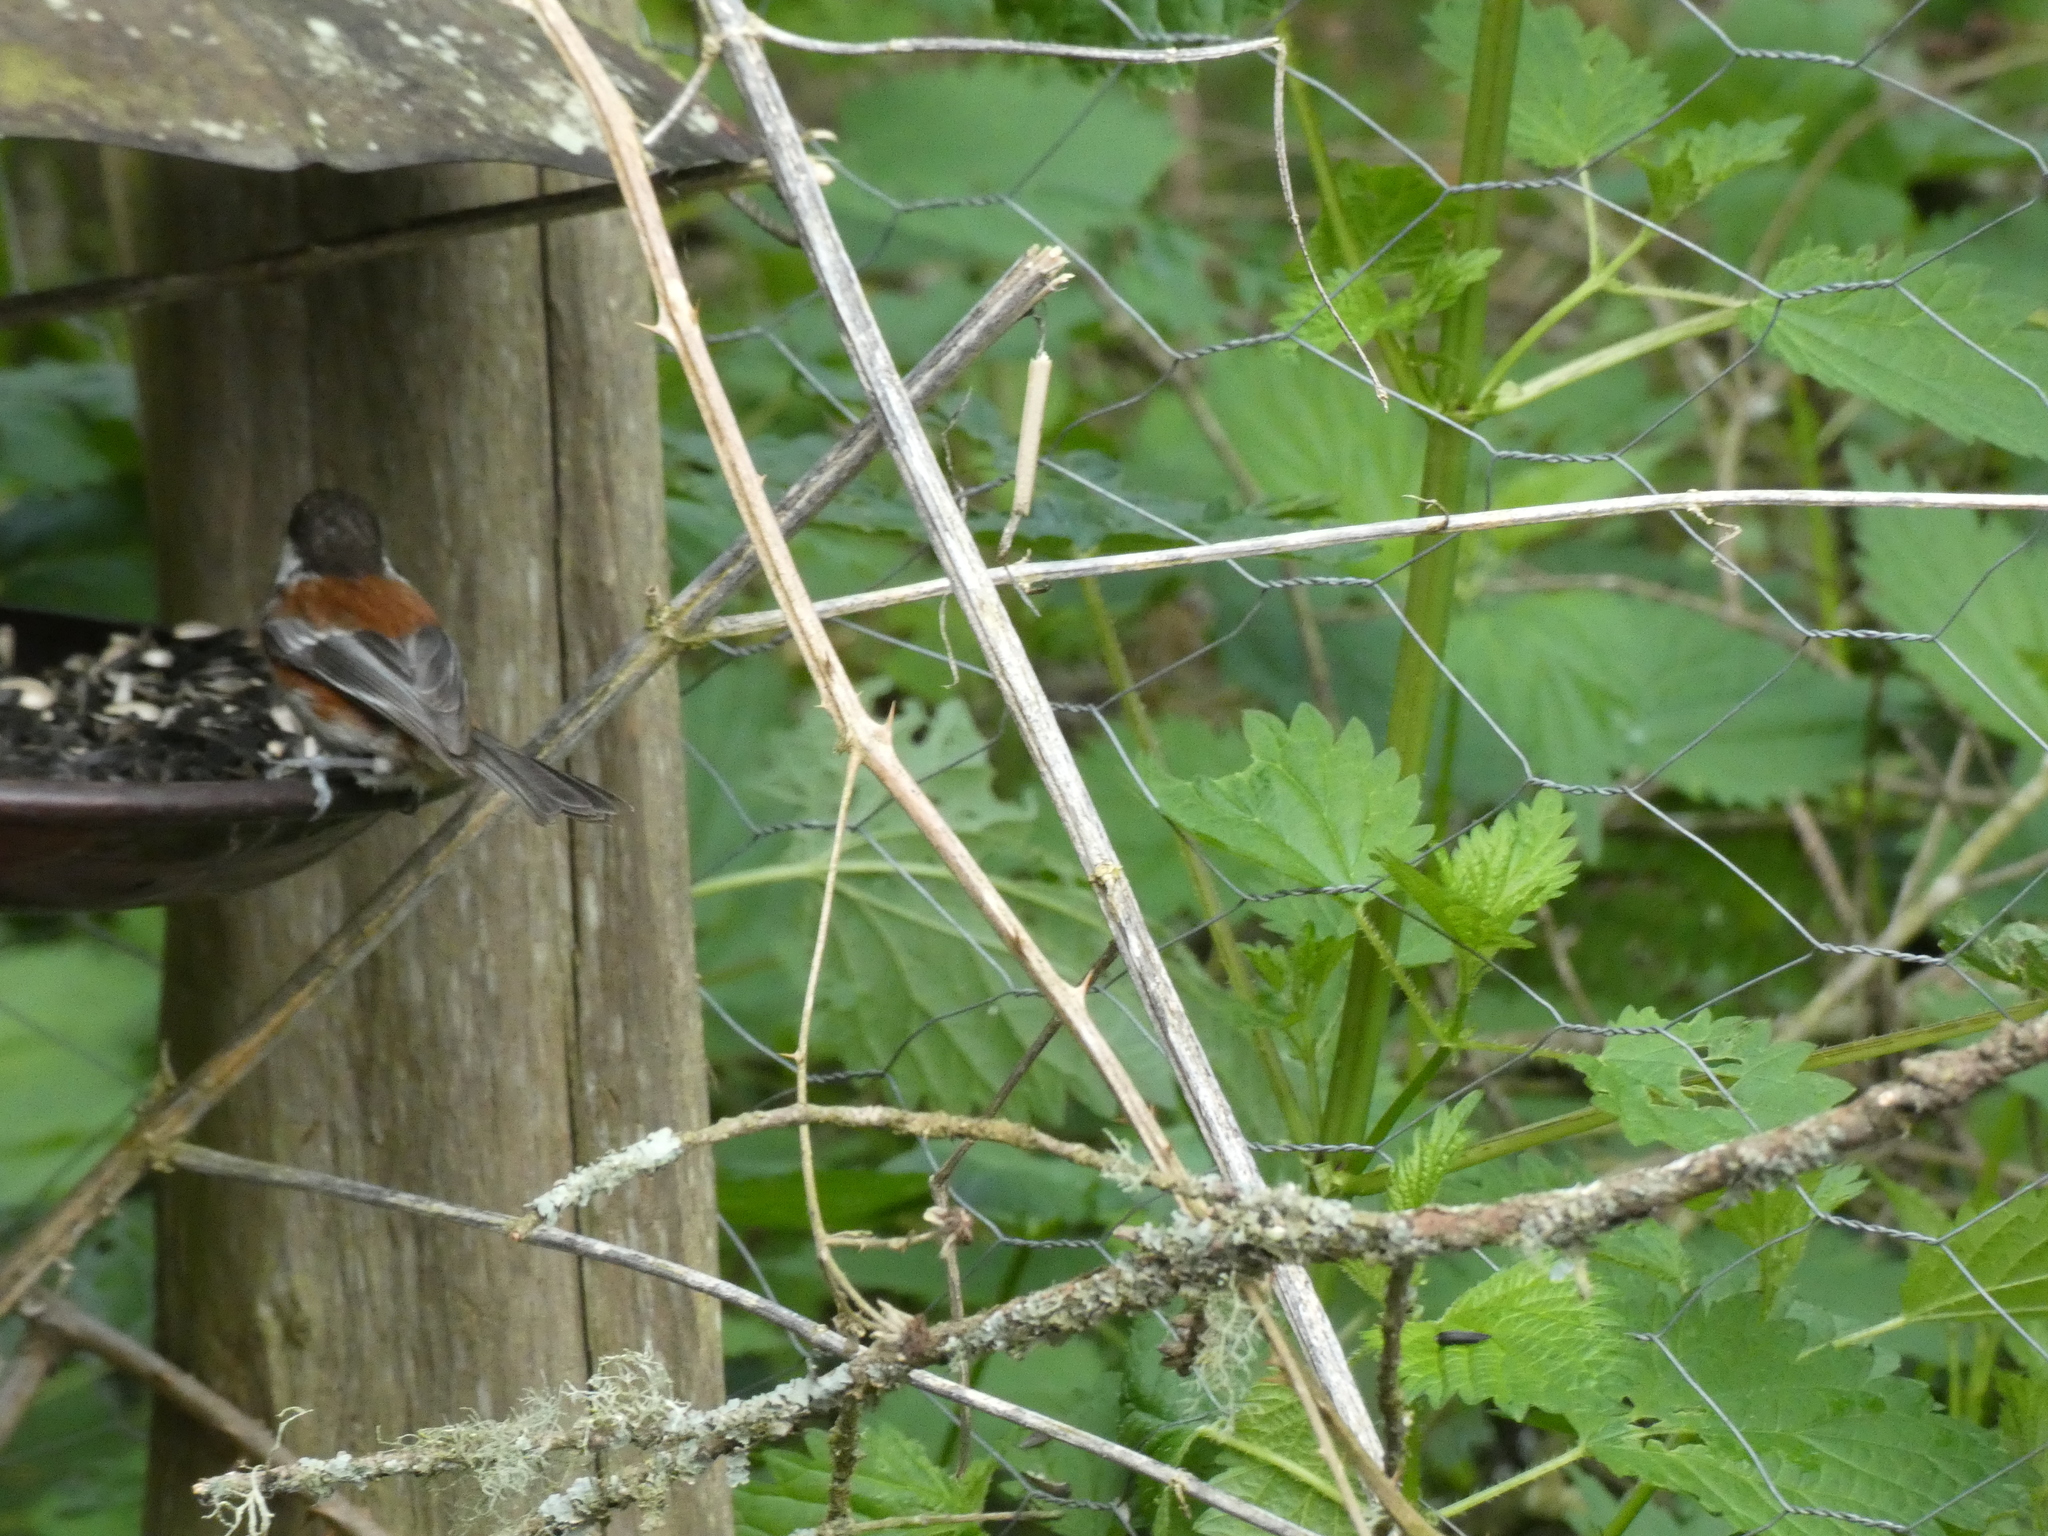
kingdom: Animalia
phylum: Chordata
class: Aves
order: Passeriformes
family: Paridae
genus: Poecile
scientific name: Poecile rufescens
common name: Chestnut-backed chickadee
